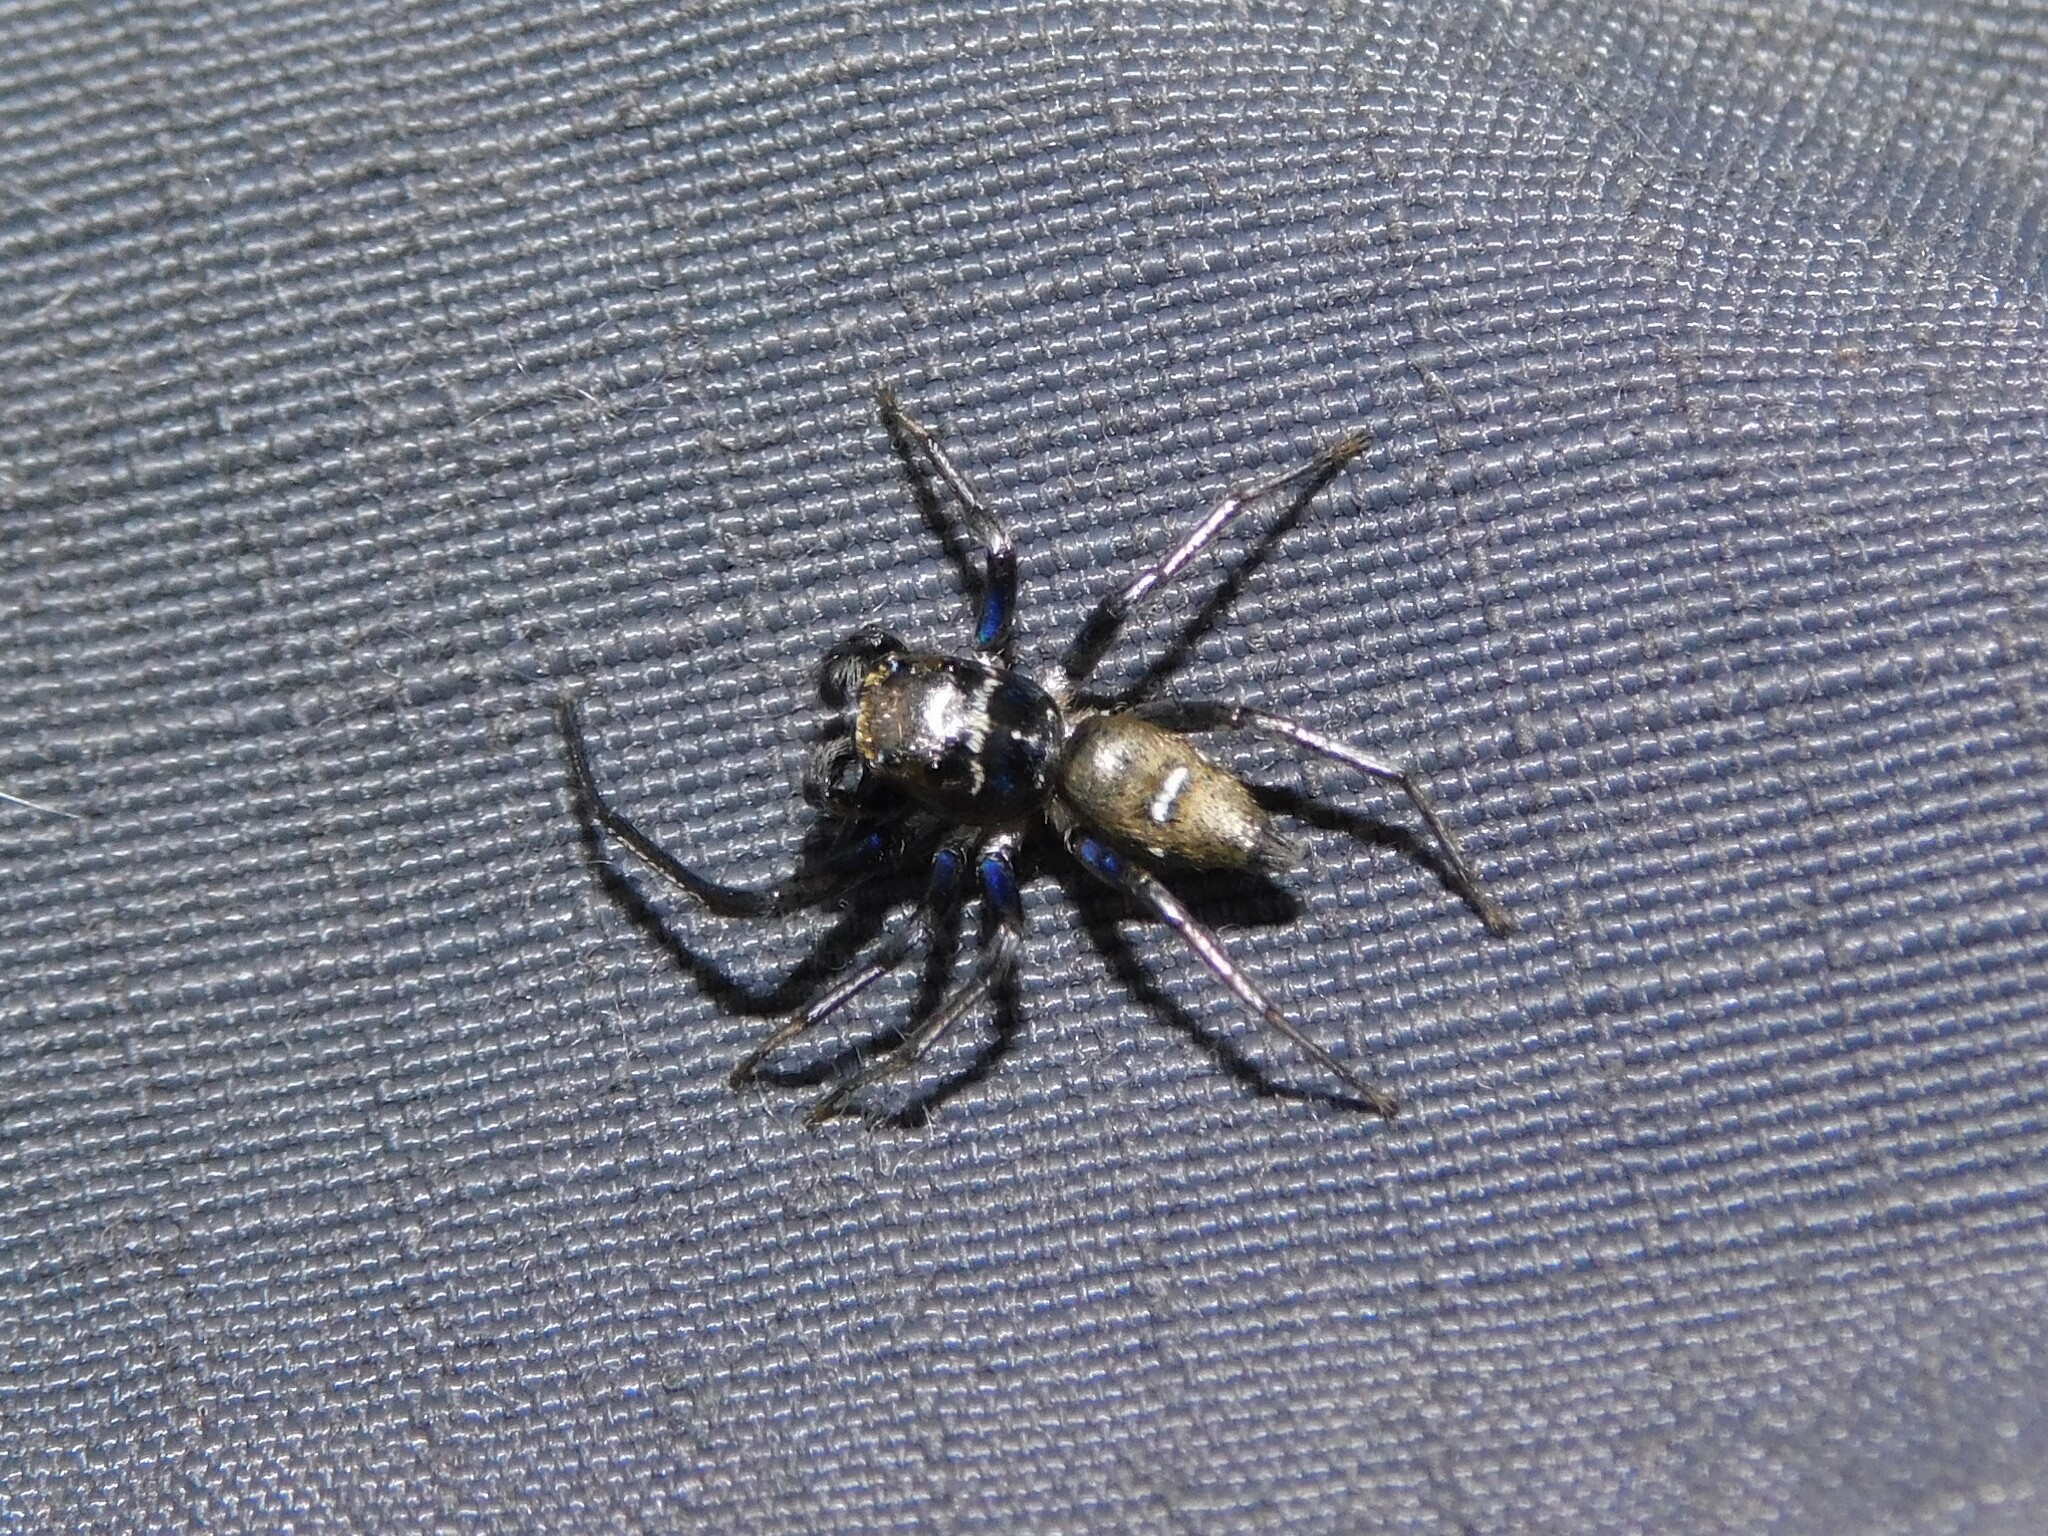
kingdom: Animalia
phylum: Arthropoda
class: Arachnida
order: Araneae
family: Salticidae
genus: Phintella
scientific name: Phintella aequipes
